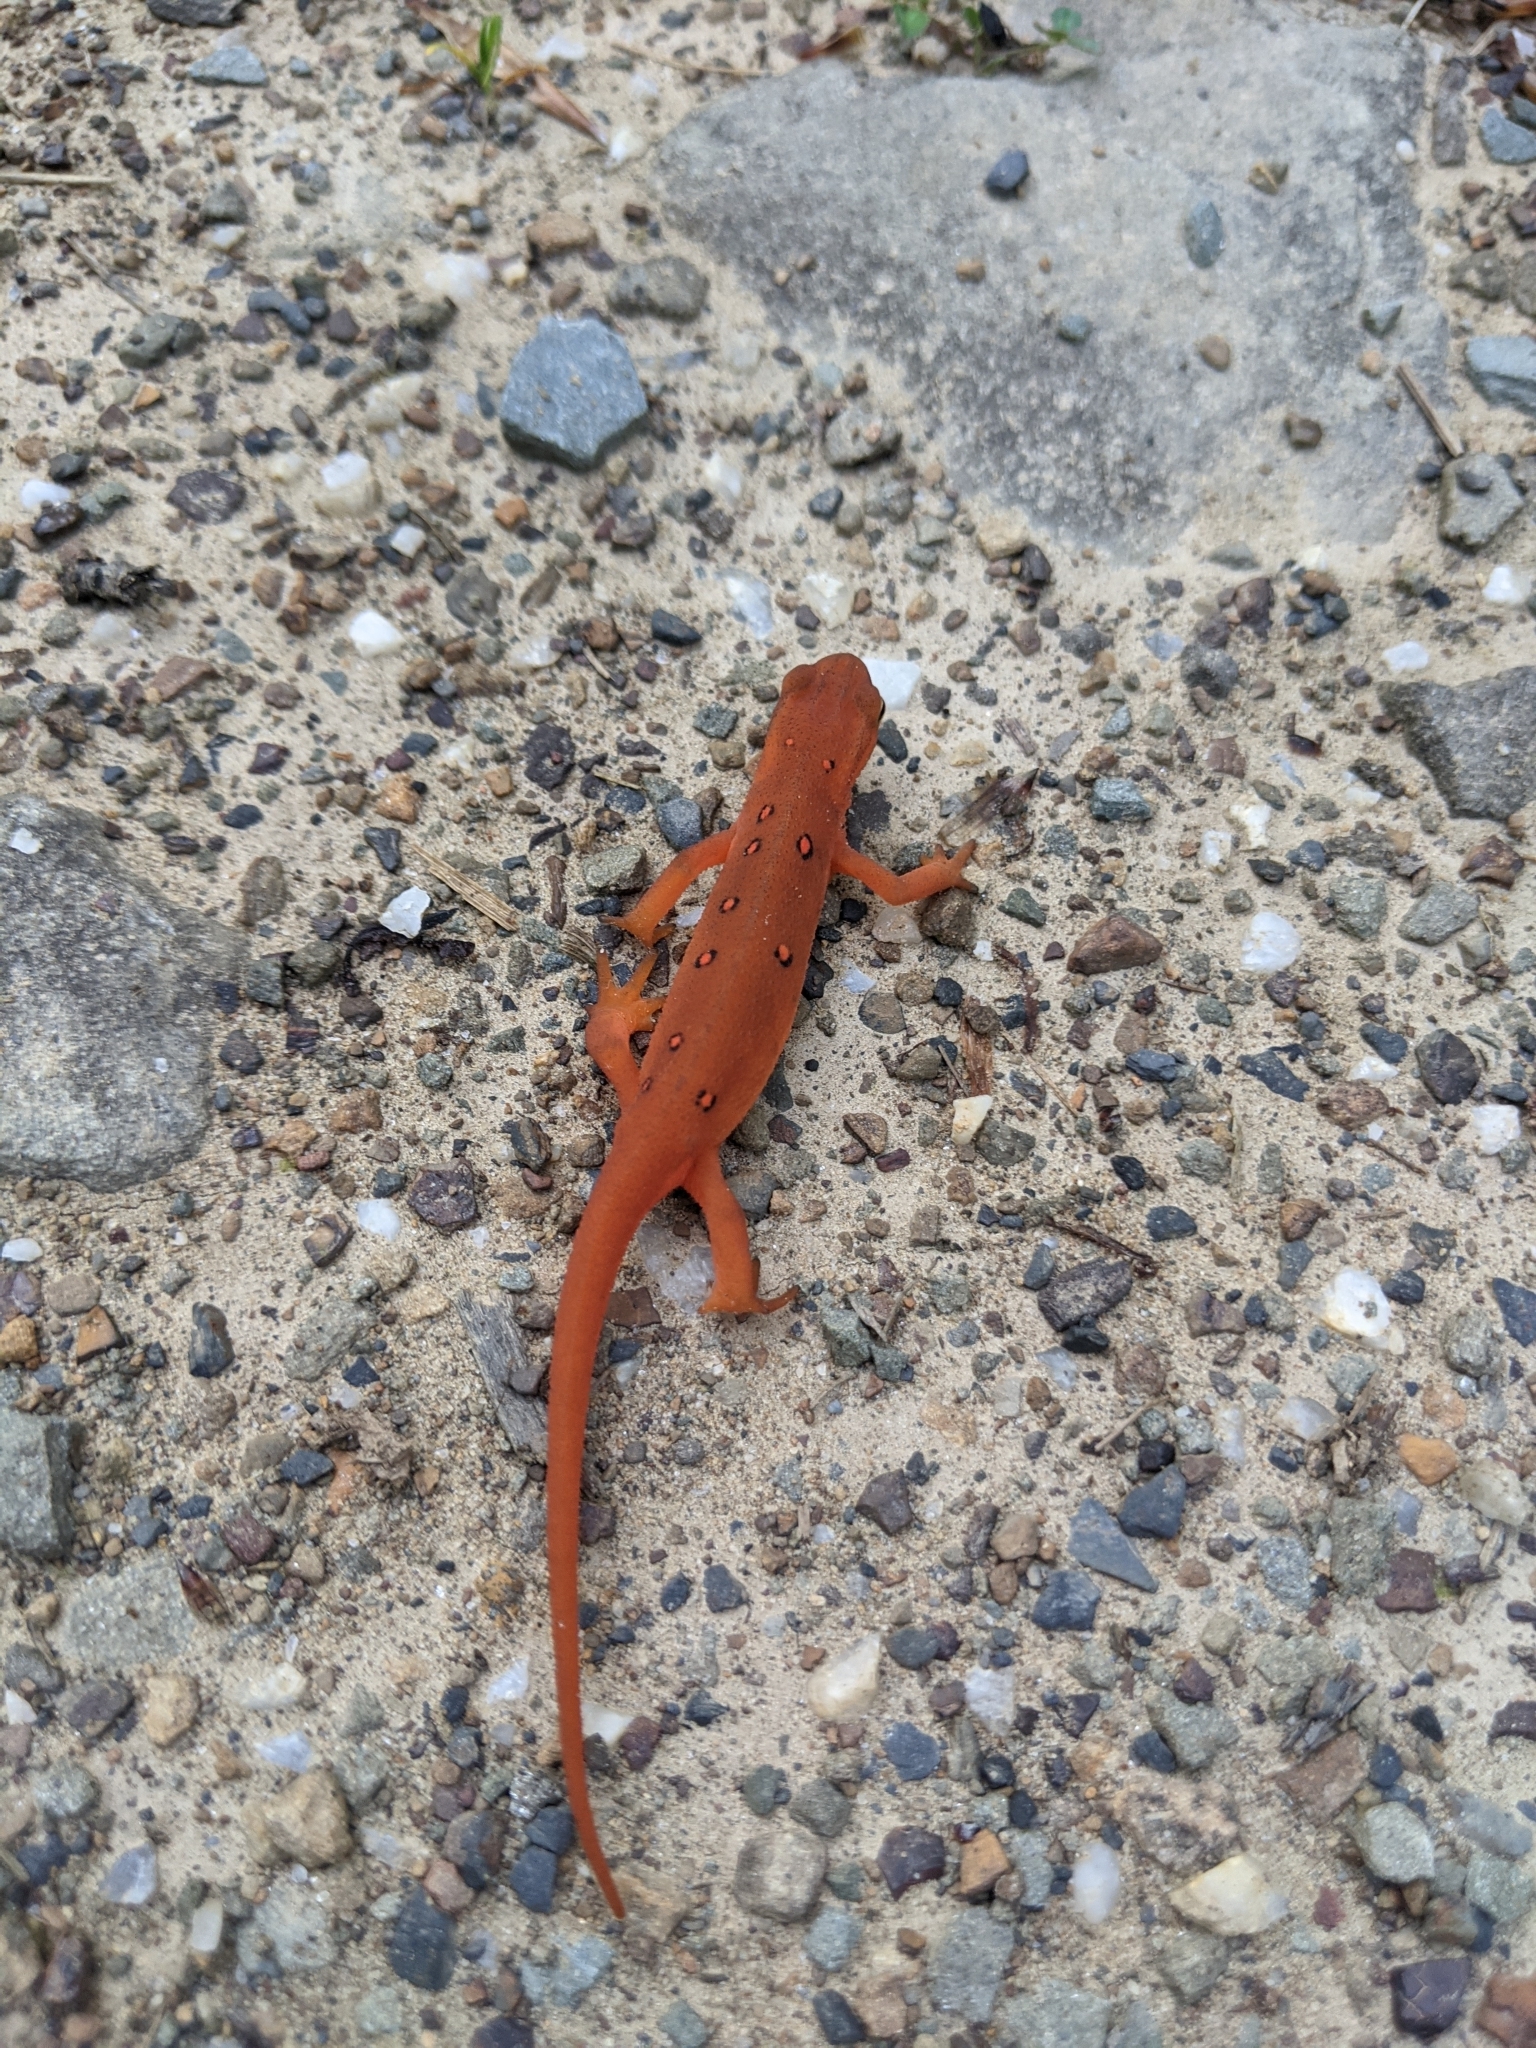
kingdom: Animalia
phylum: Chordata
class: Amphibia
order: Caudata
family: Salamandridae
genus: Notophthalmus
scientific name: Notophthalmus viridescens
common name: Eastern newt
